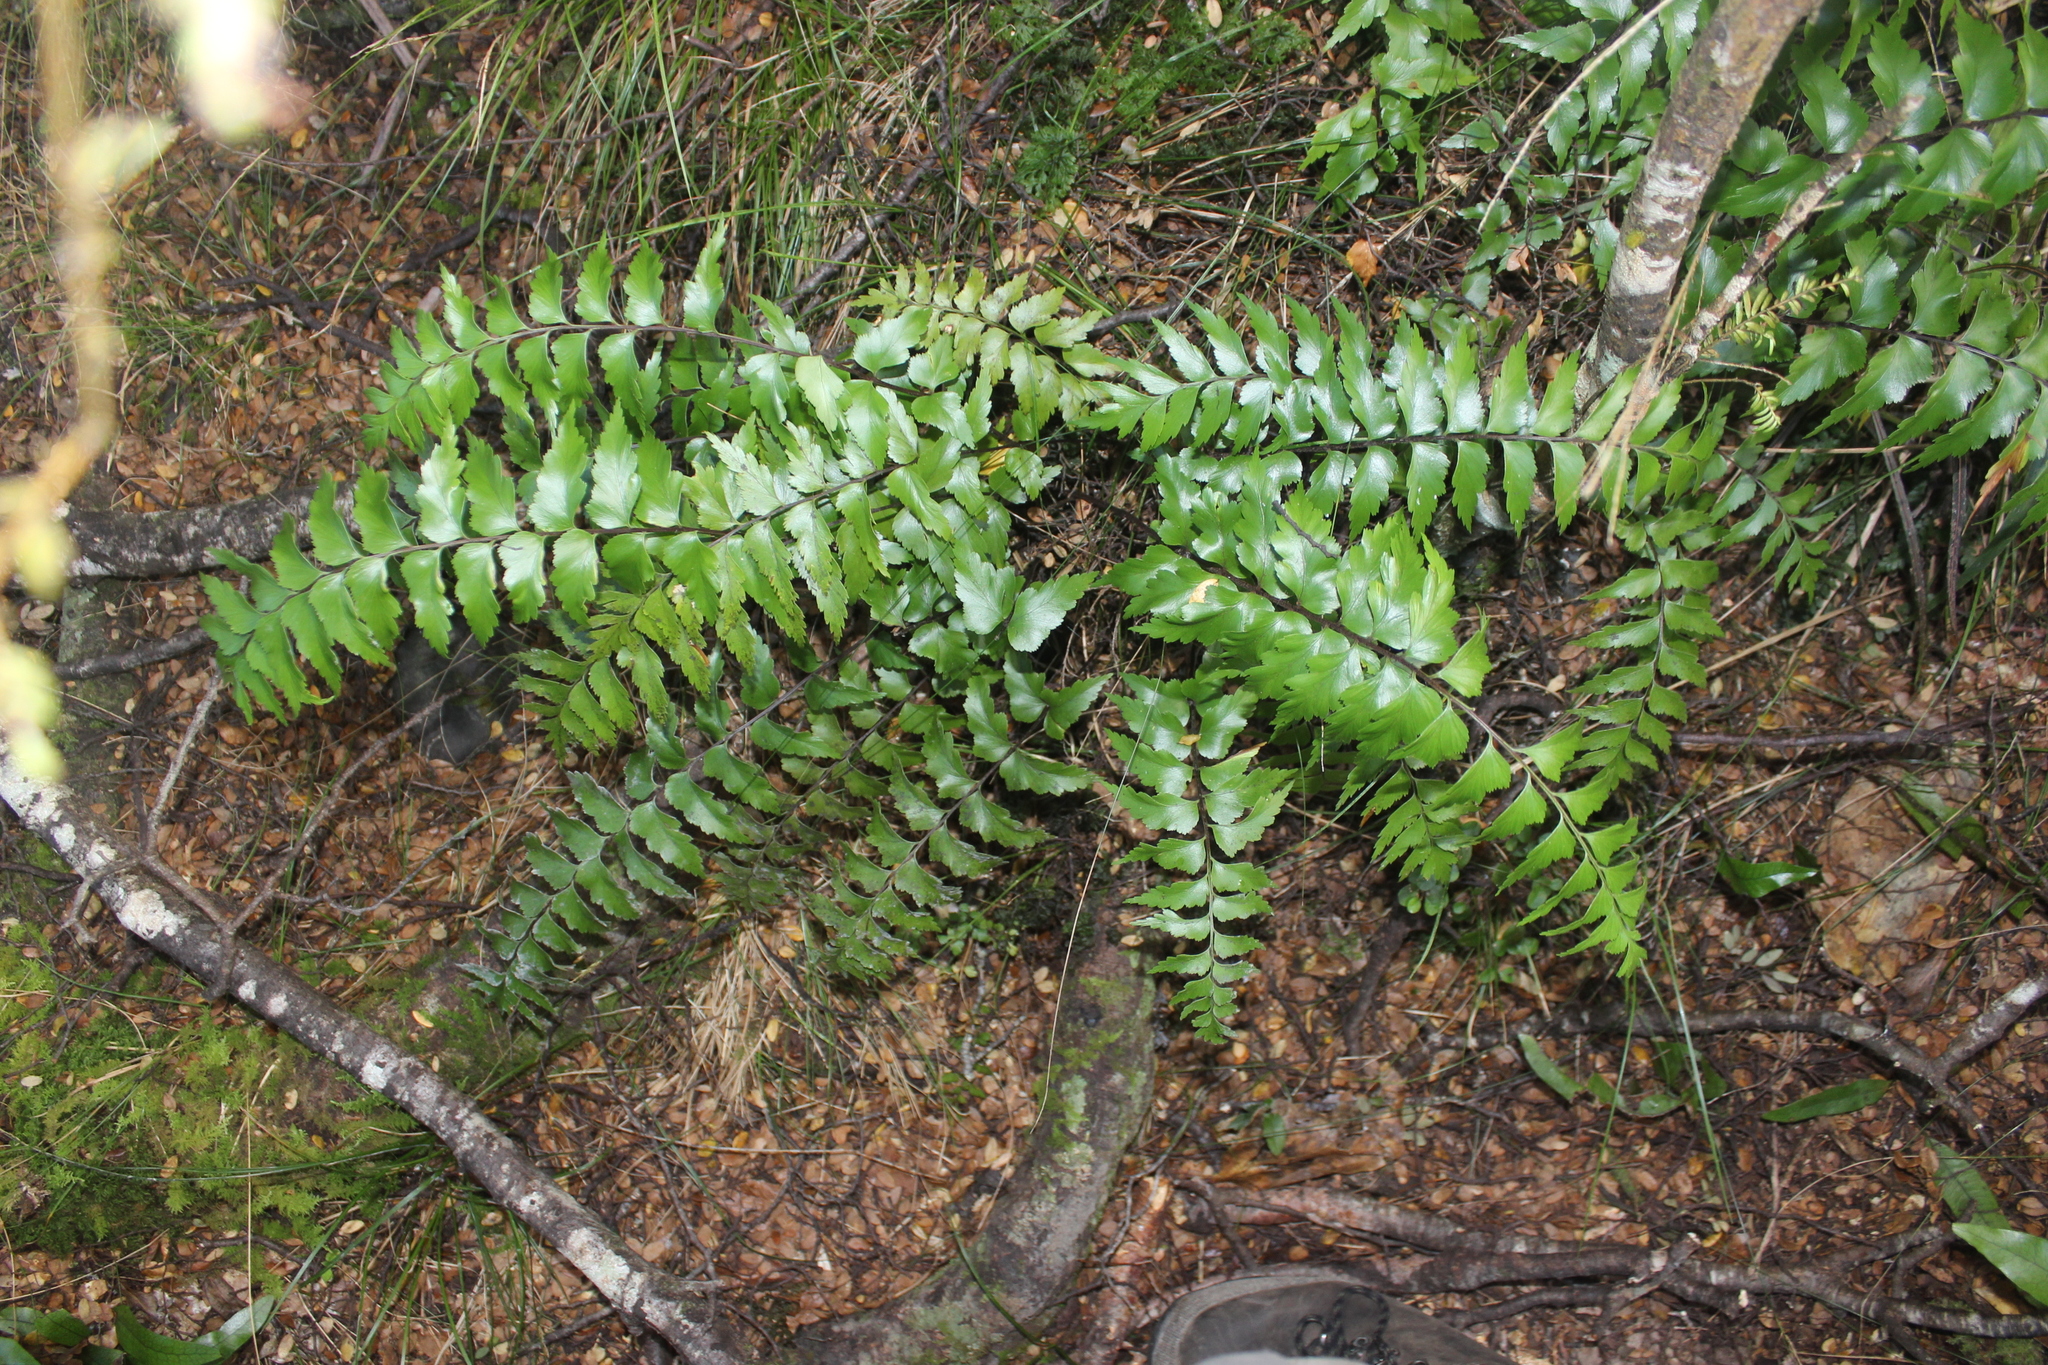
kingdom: Plantae
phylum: Tracheophyta
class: Polypodiopsida
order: Polypodiales
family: Aspleniaceae
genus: Asplenium
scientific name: Asplenium polyodon
